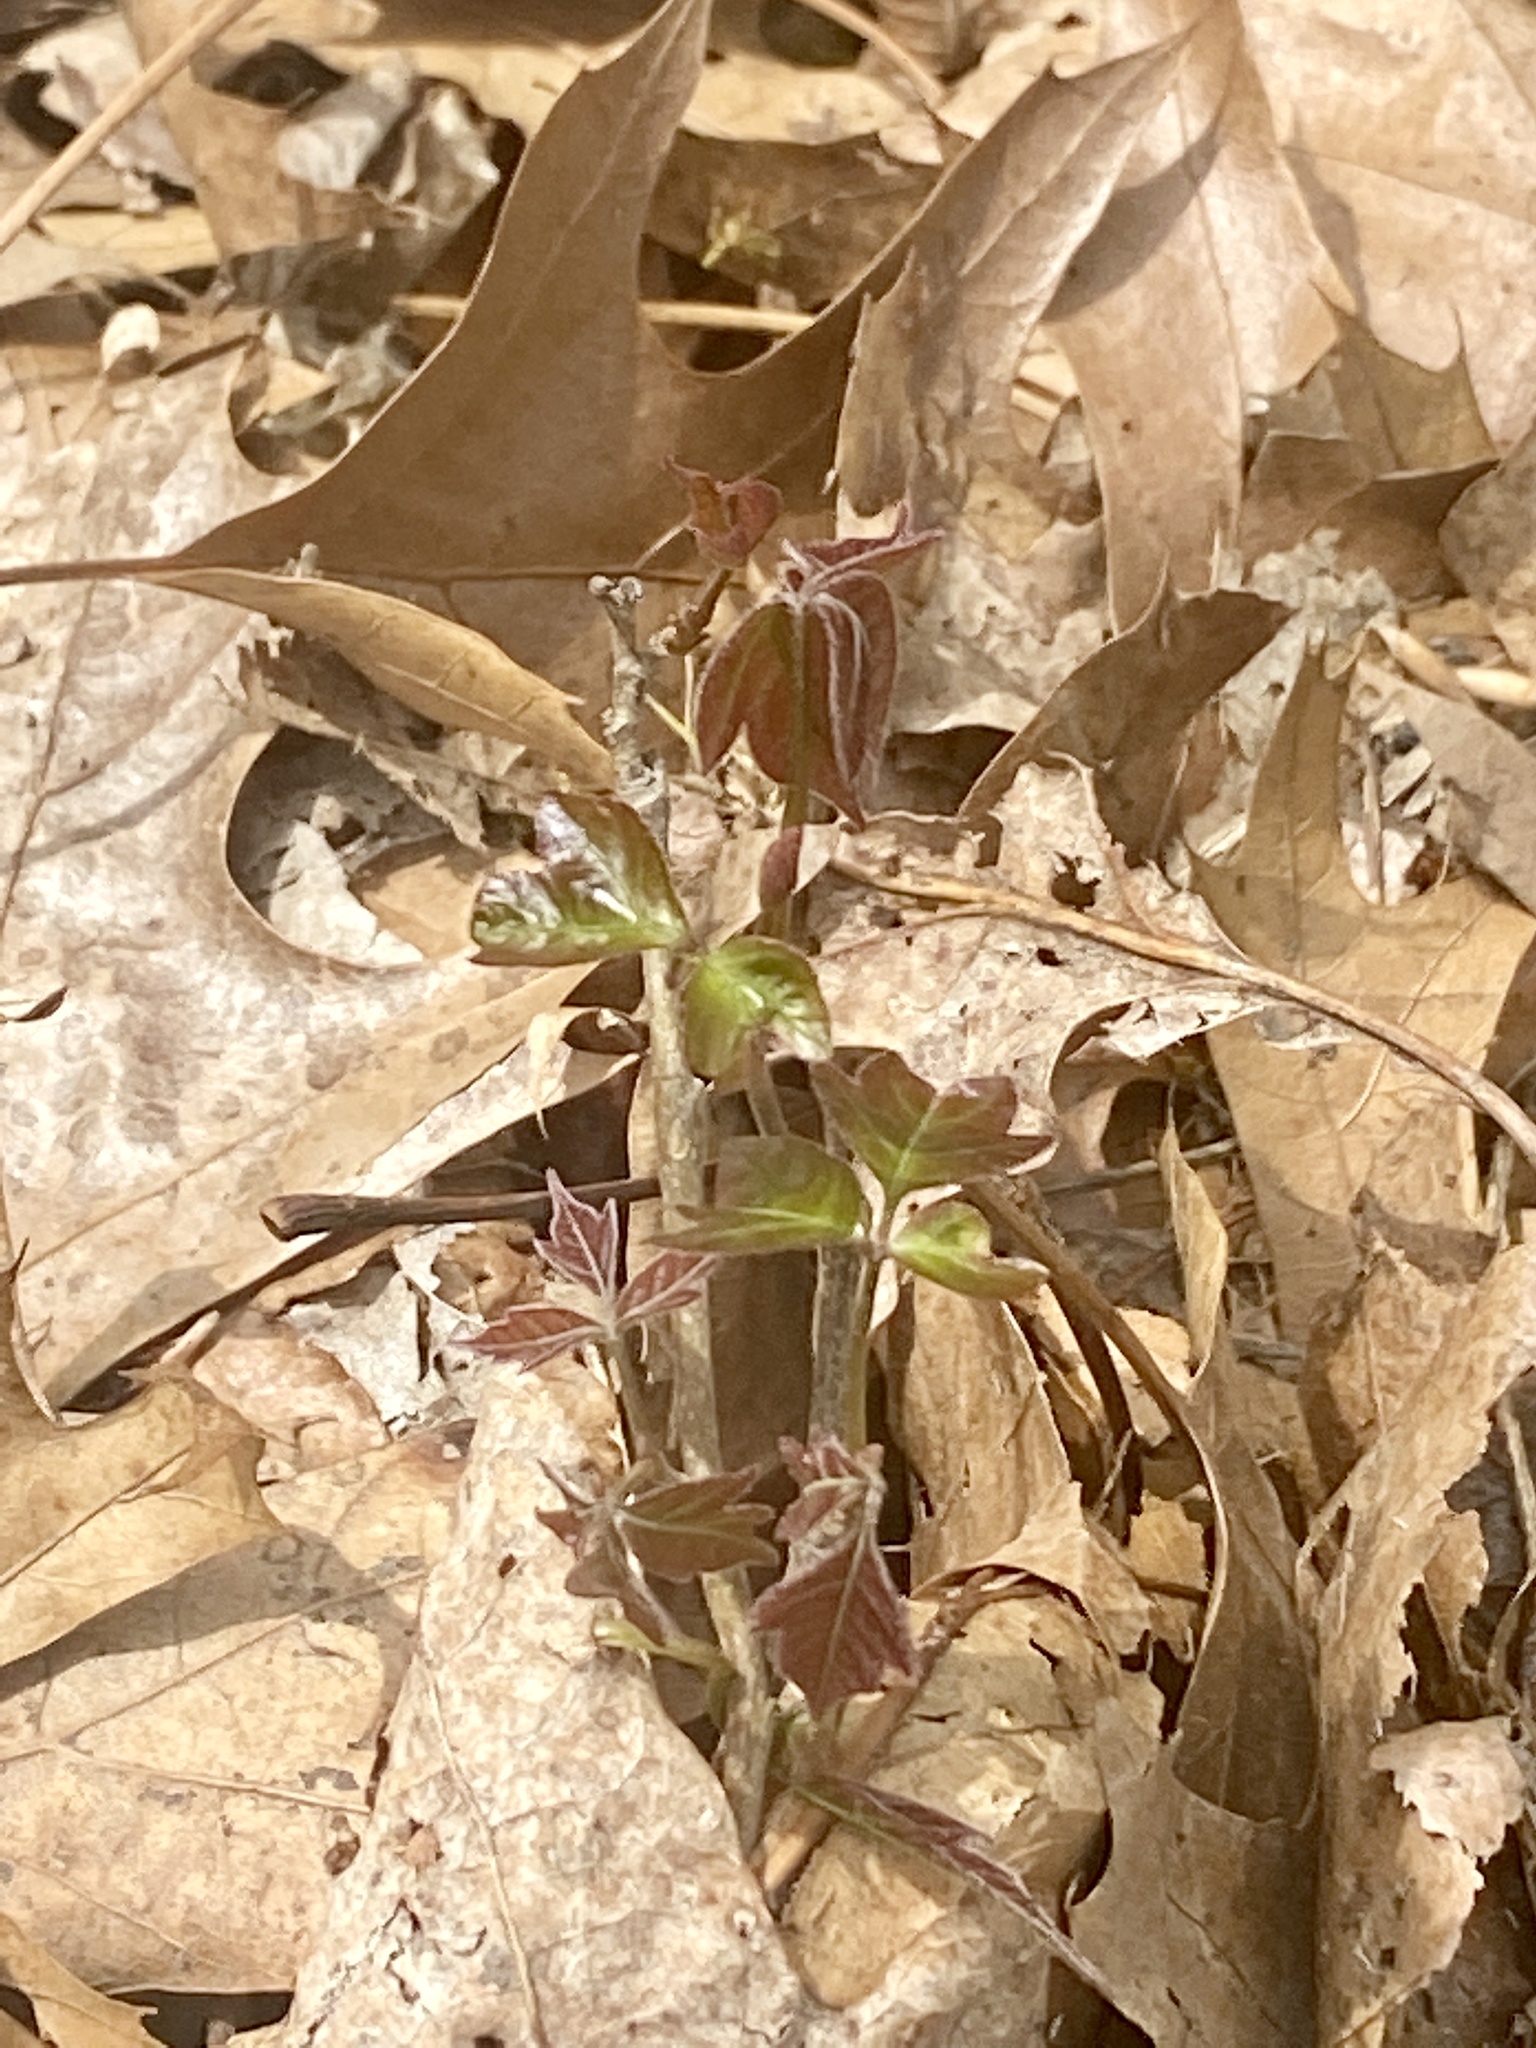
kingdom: Plantae
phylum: Tracheophyta
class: Magnoliopsida
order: Sapindales
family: Anacardiaceae
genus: Toxicodendron
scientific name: Toxicodendron radicans
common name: Poison ivy
